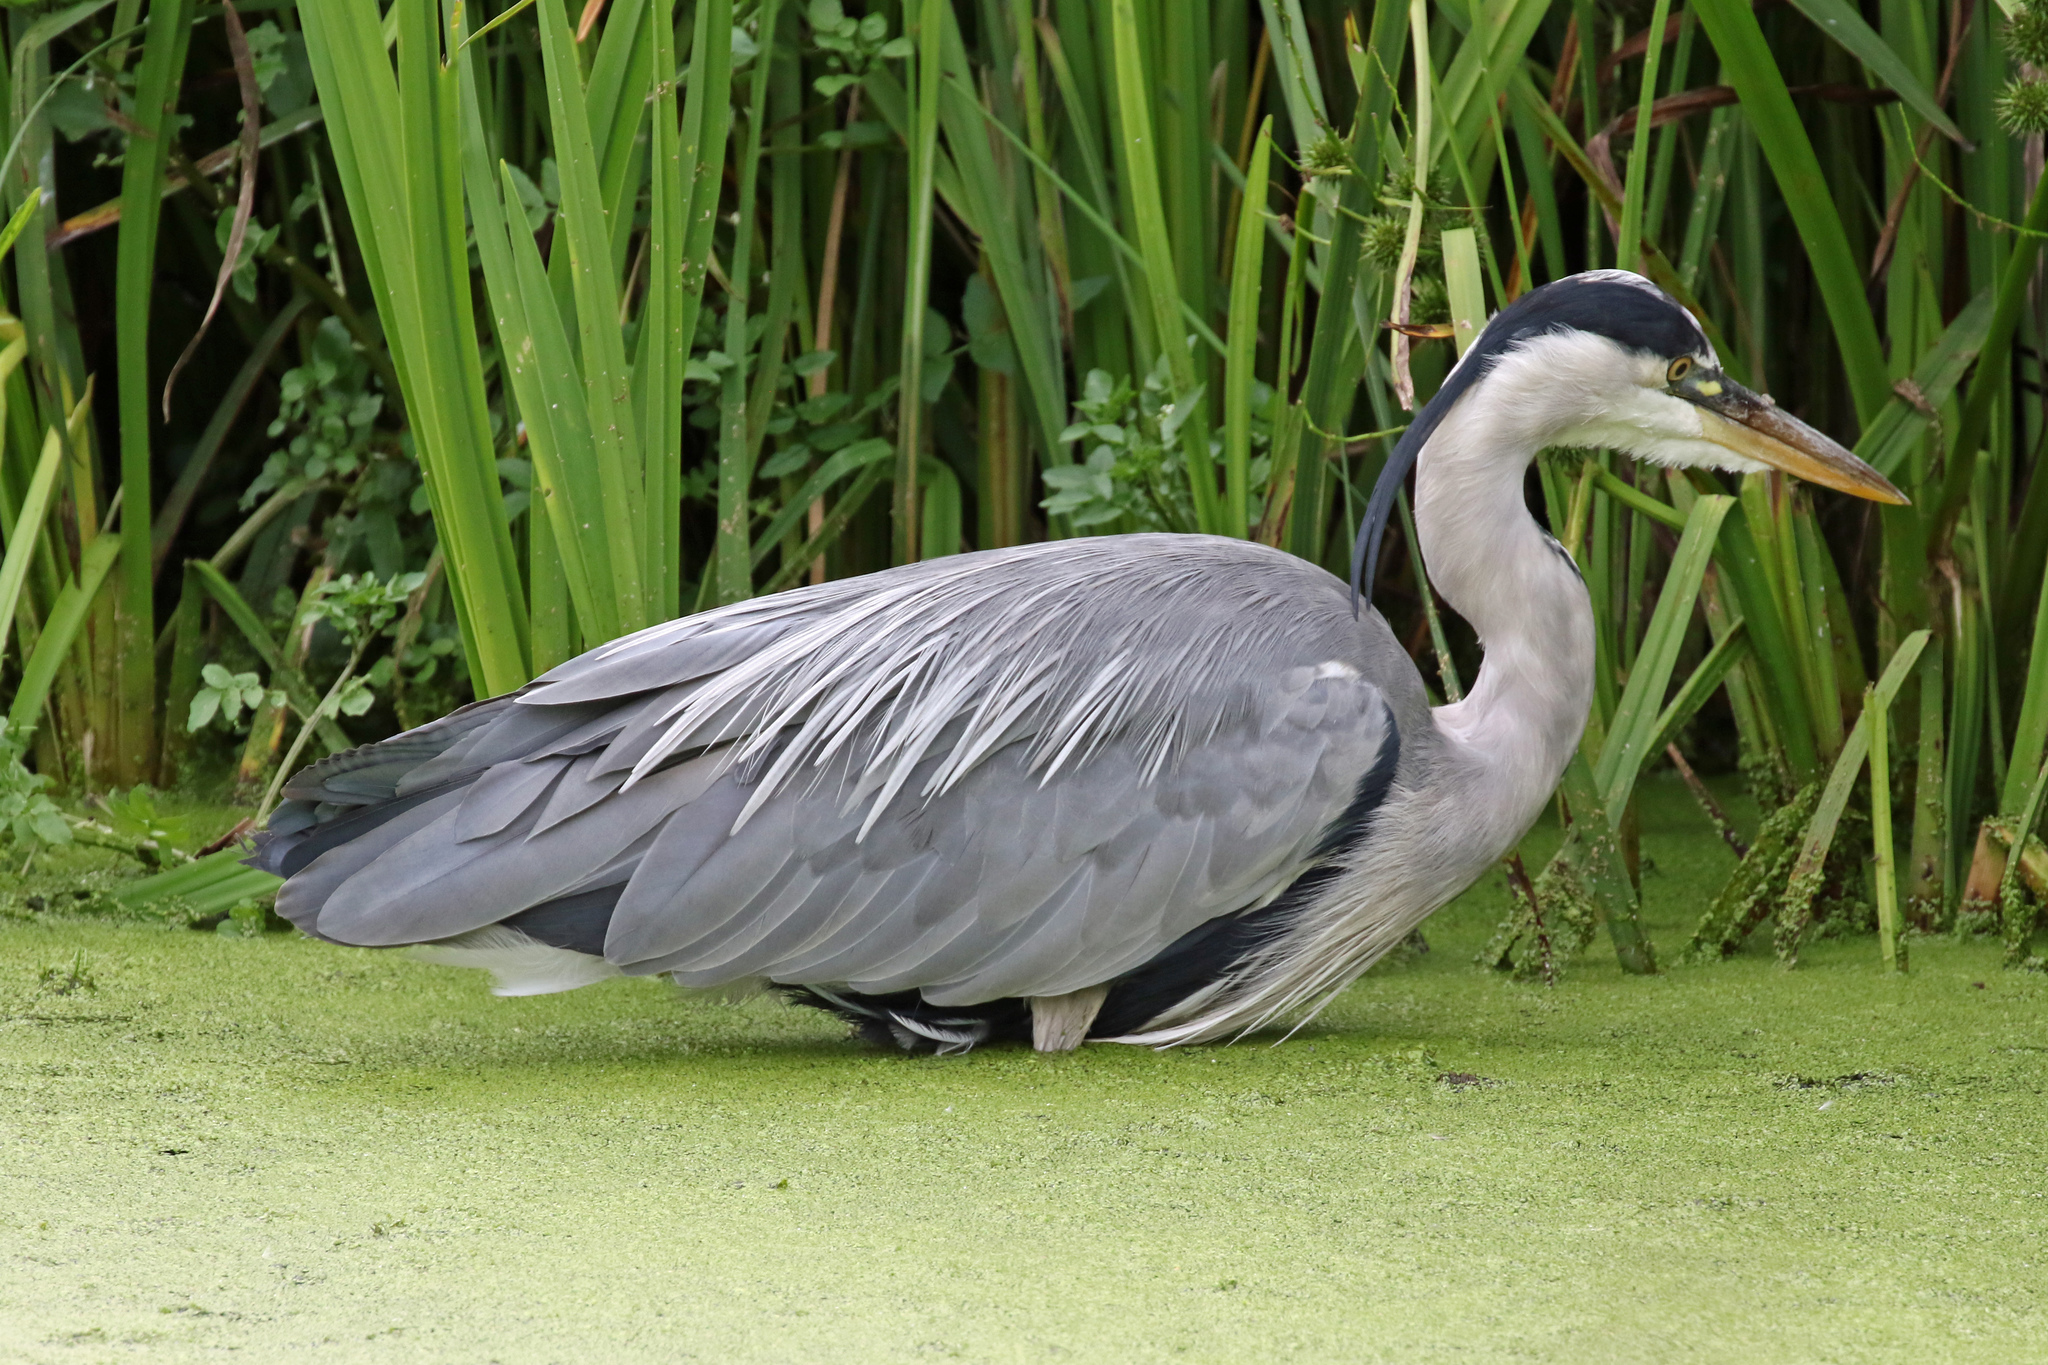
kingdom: Animalia
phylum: Chordata
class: Aves
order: Pelecaniformes
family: Ardeidae
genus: Ardea
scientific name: Ardea cinerea
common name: Grey heron
